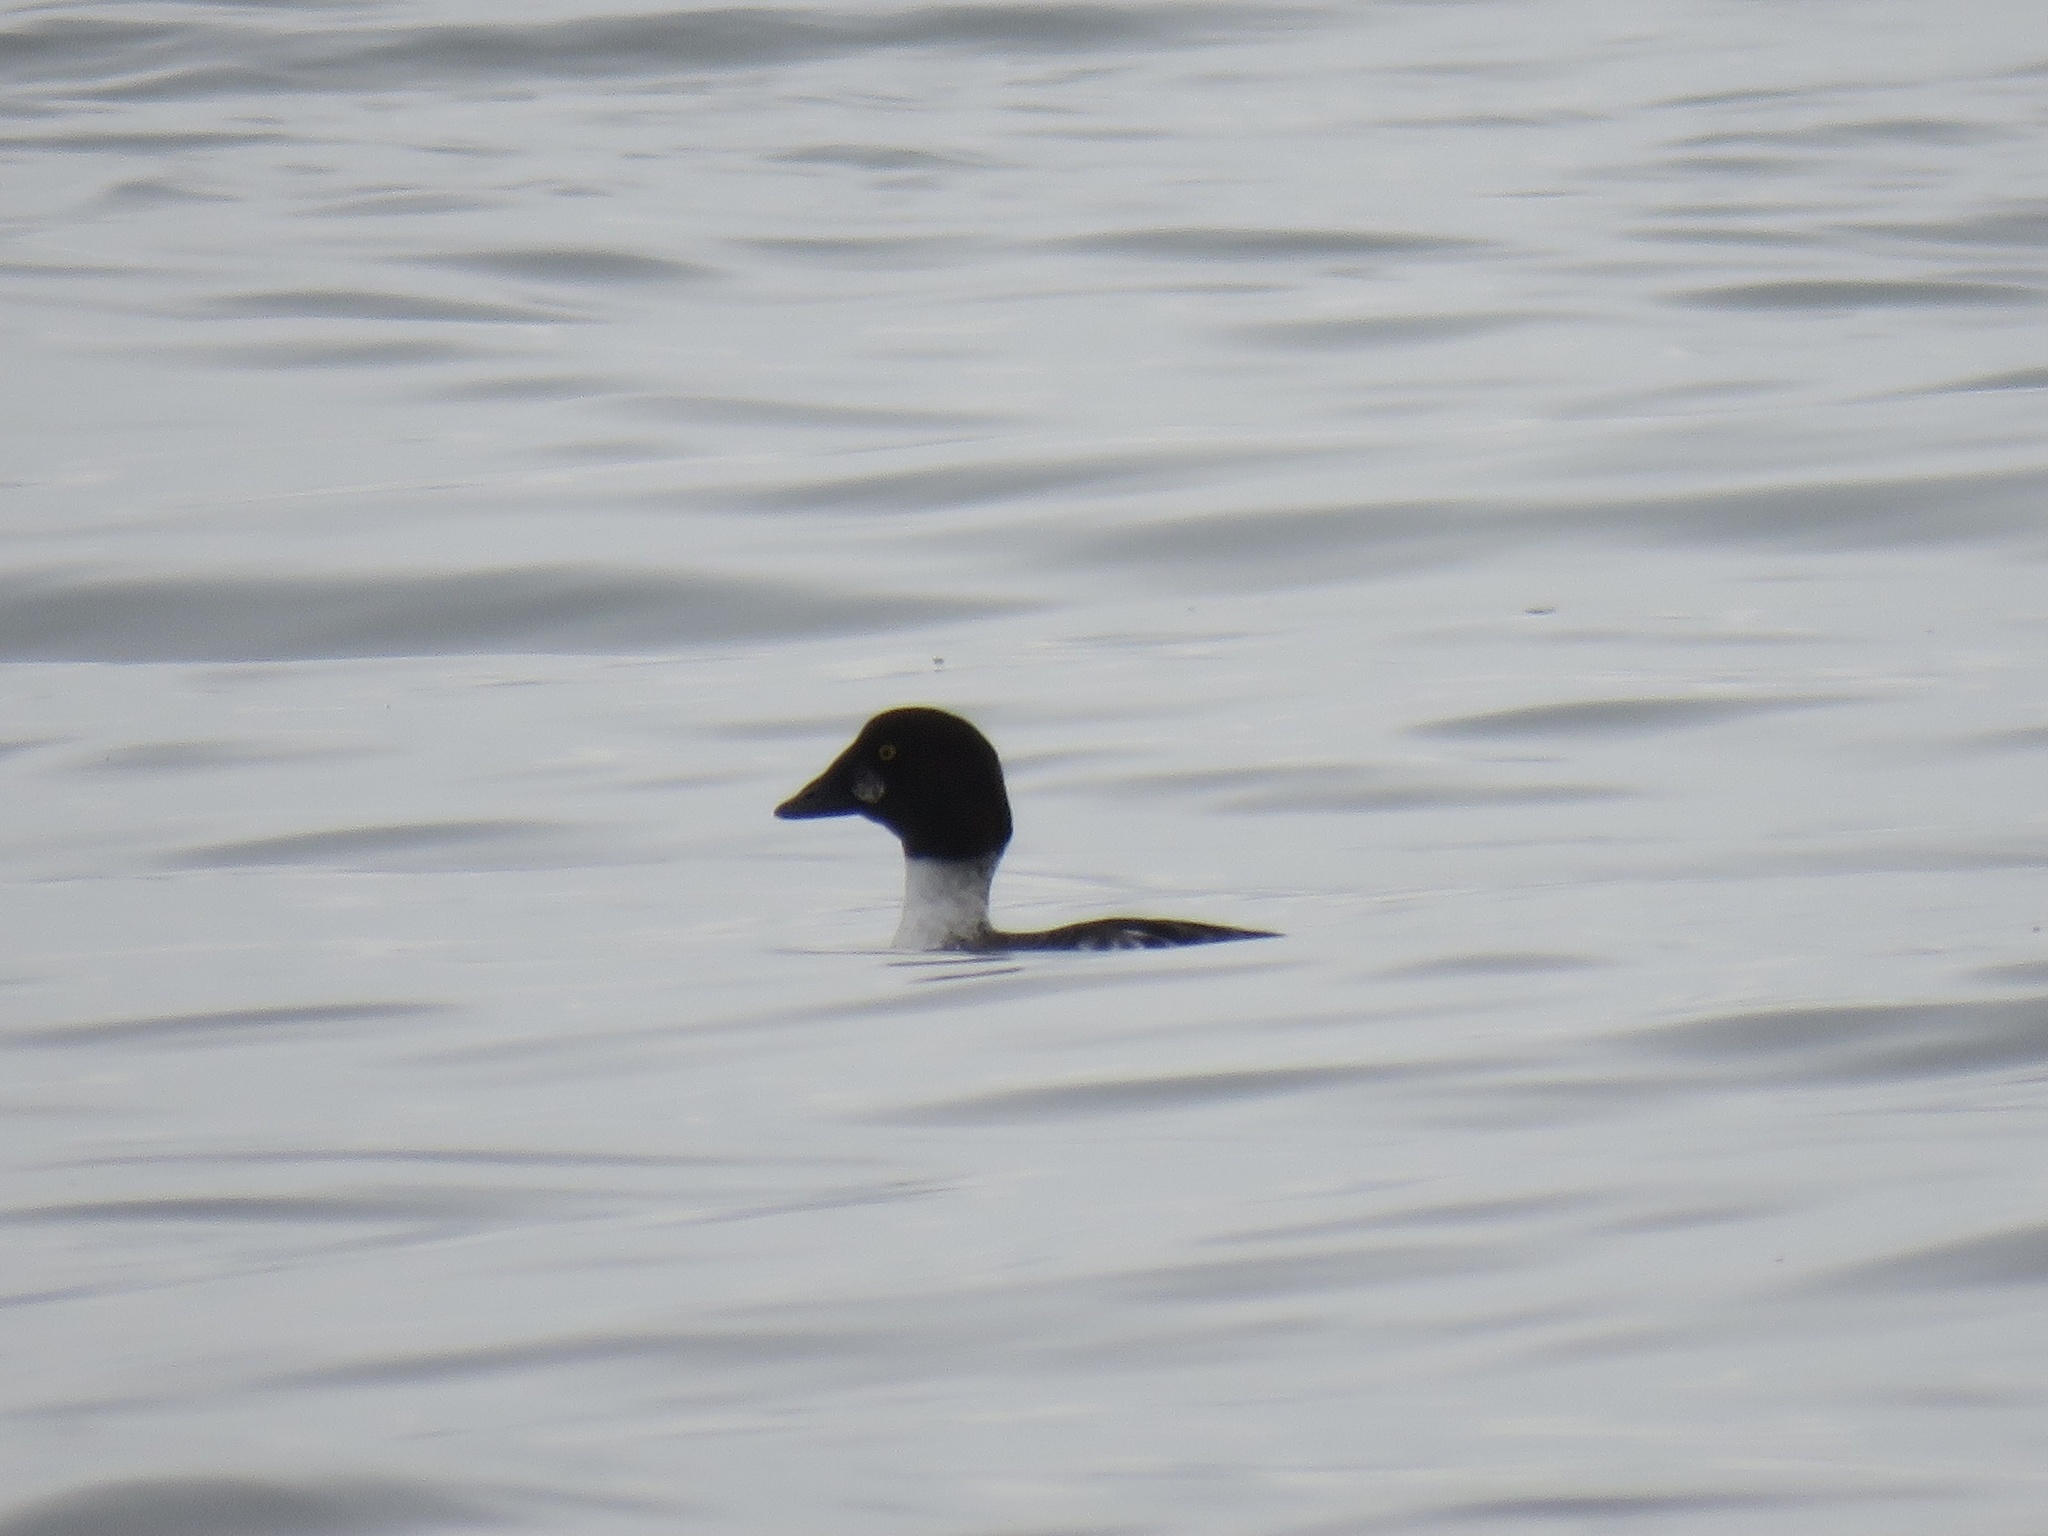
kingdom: Animalia
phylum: Chordata
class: Aves
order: Anseriformes
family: Anatidae
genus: Bucephala
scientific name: Bucephala clangula
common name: Common goldeneye
